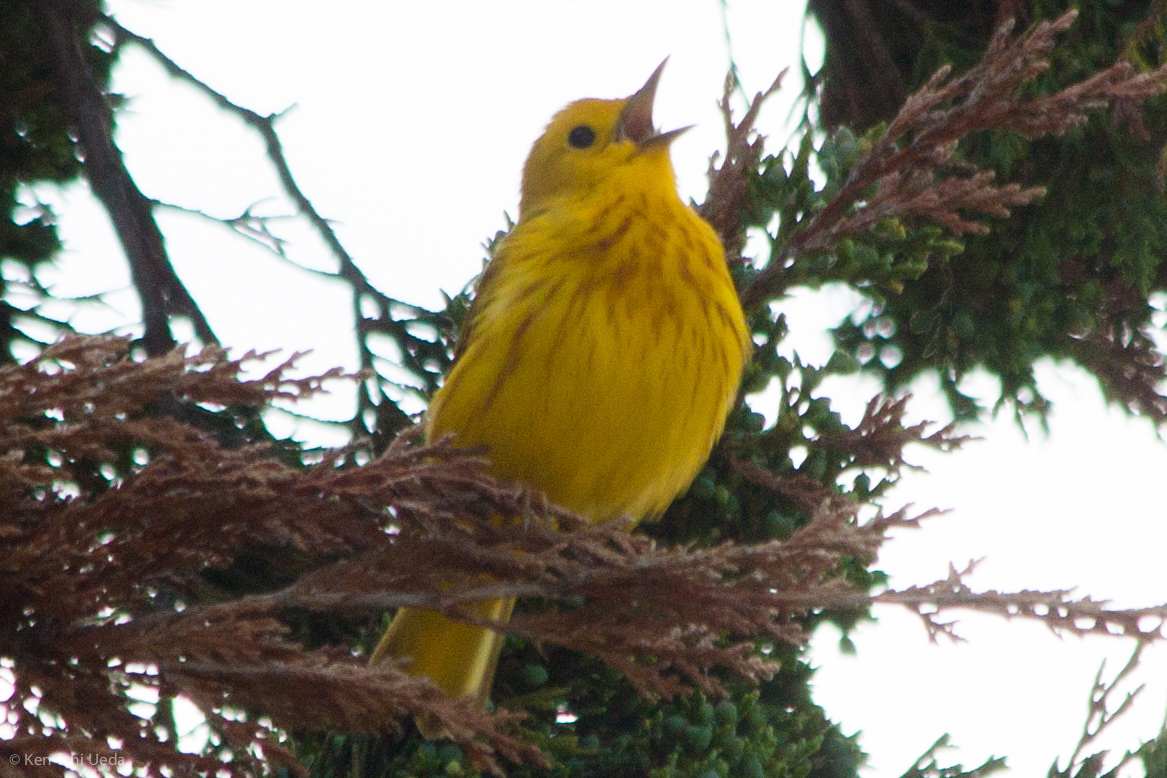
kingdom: Animalia
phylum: Chordata
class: Aves
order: Passeriformes
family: Parulidae
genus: Setophaga
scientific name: Setophaga petechia
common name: Yellow warbler
